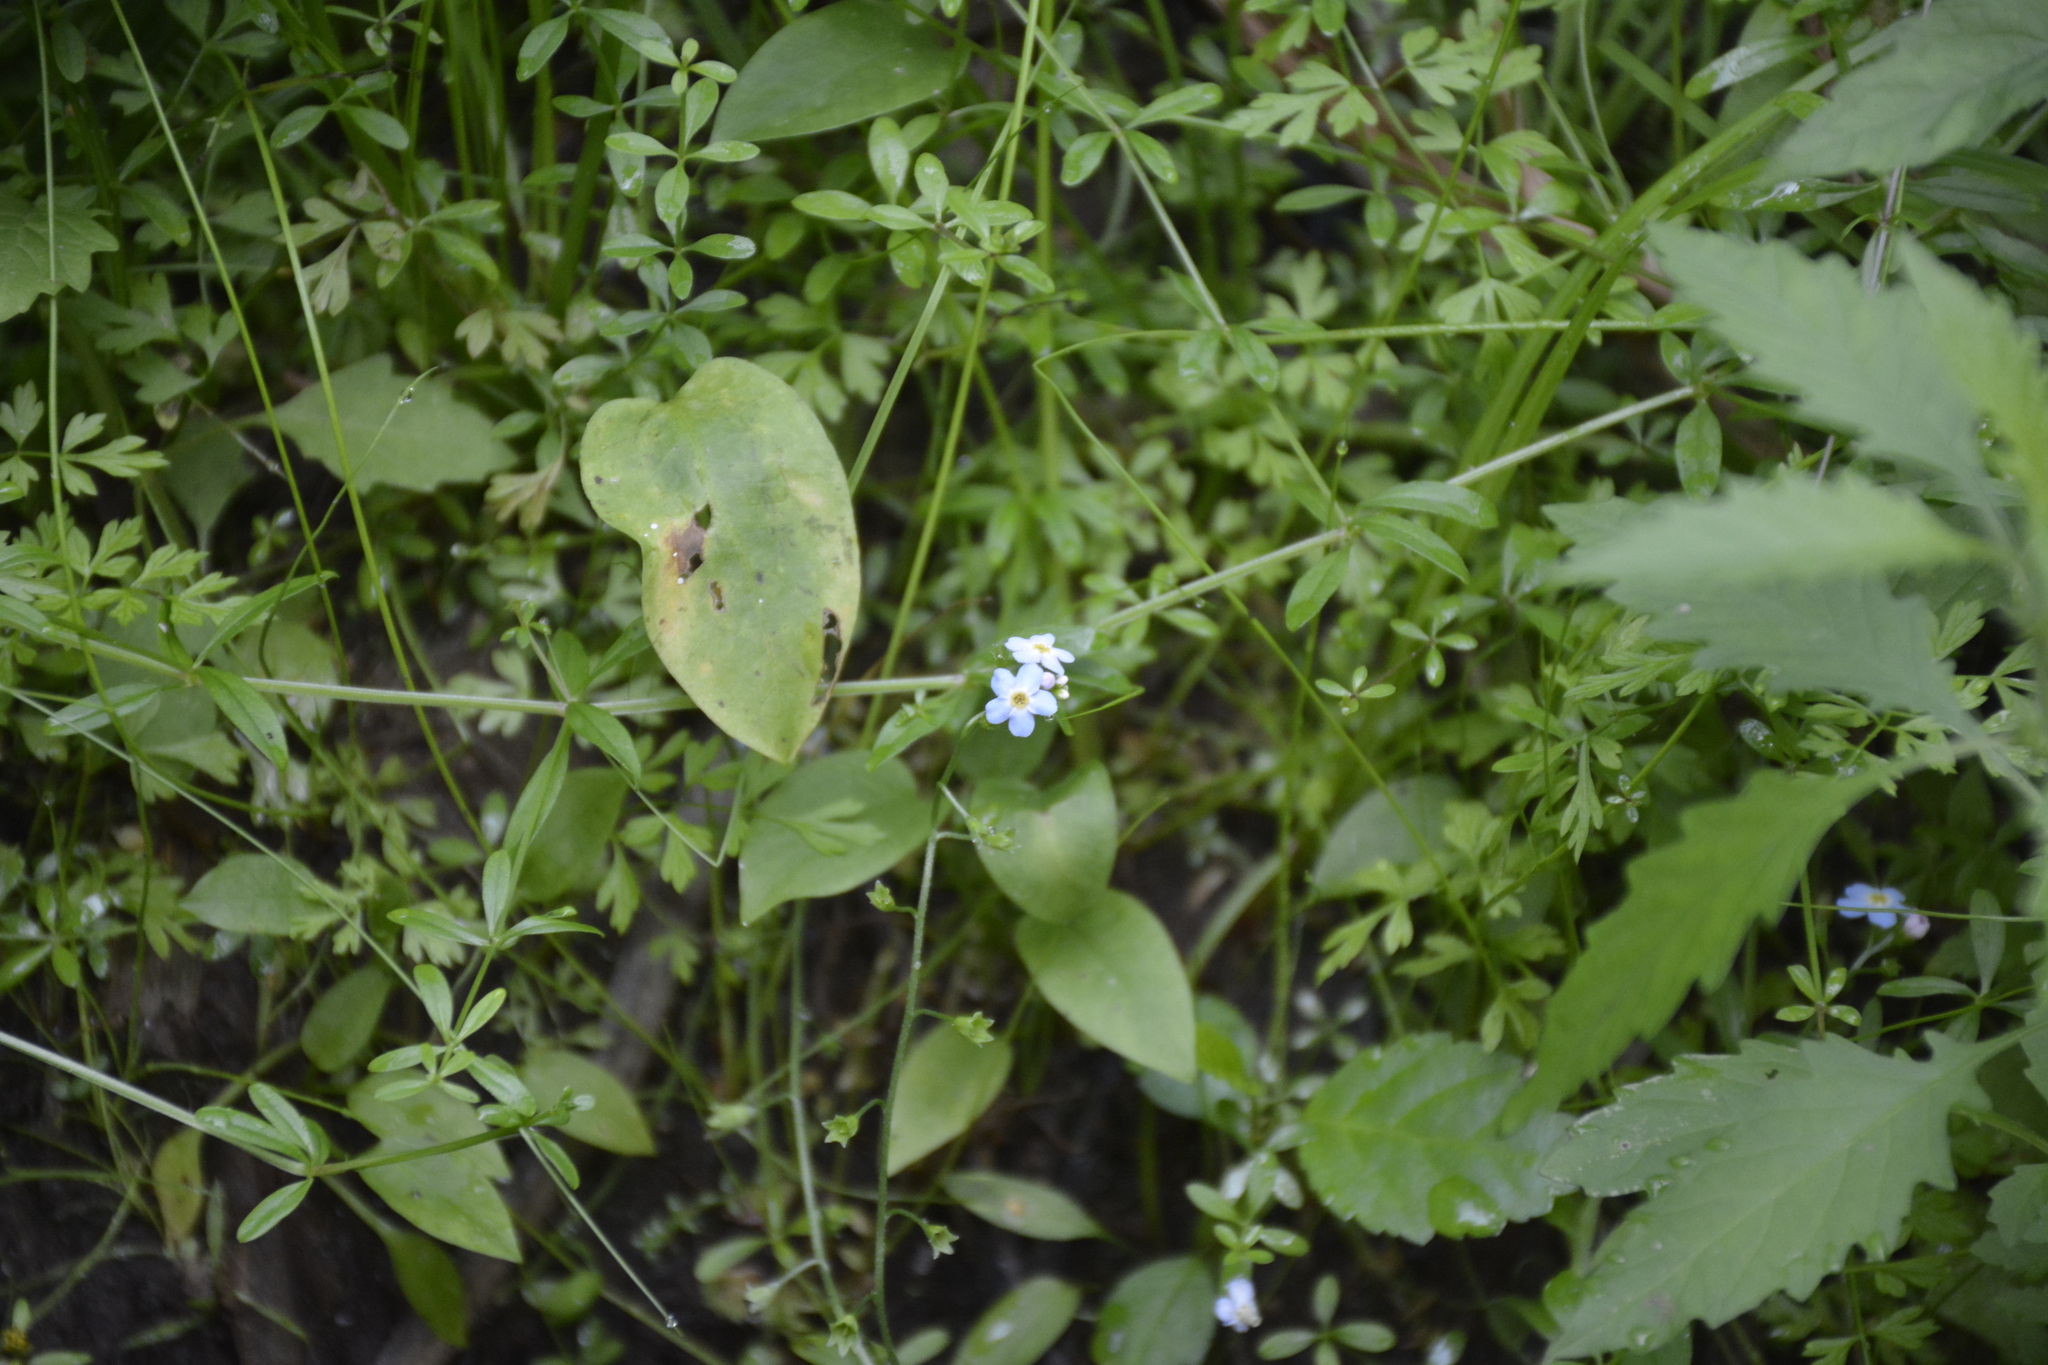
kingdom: Plantae
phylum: Tracheophyta
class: Magnoliopsida
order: Boraginales
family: Boraginaceae
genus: Myosotis
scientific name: Myosotis scorpioides
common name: Water forget-me-not
